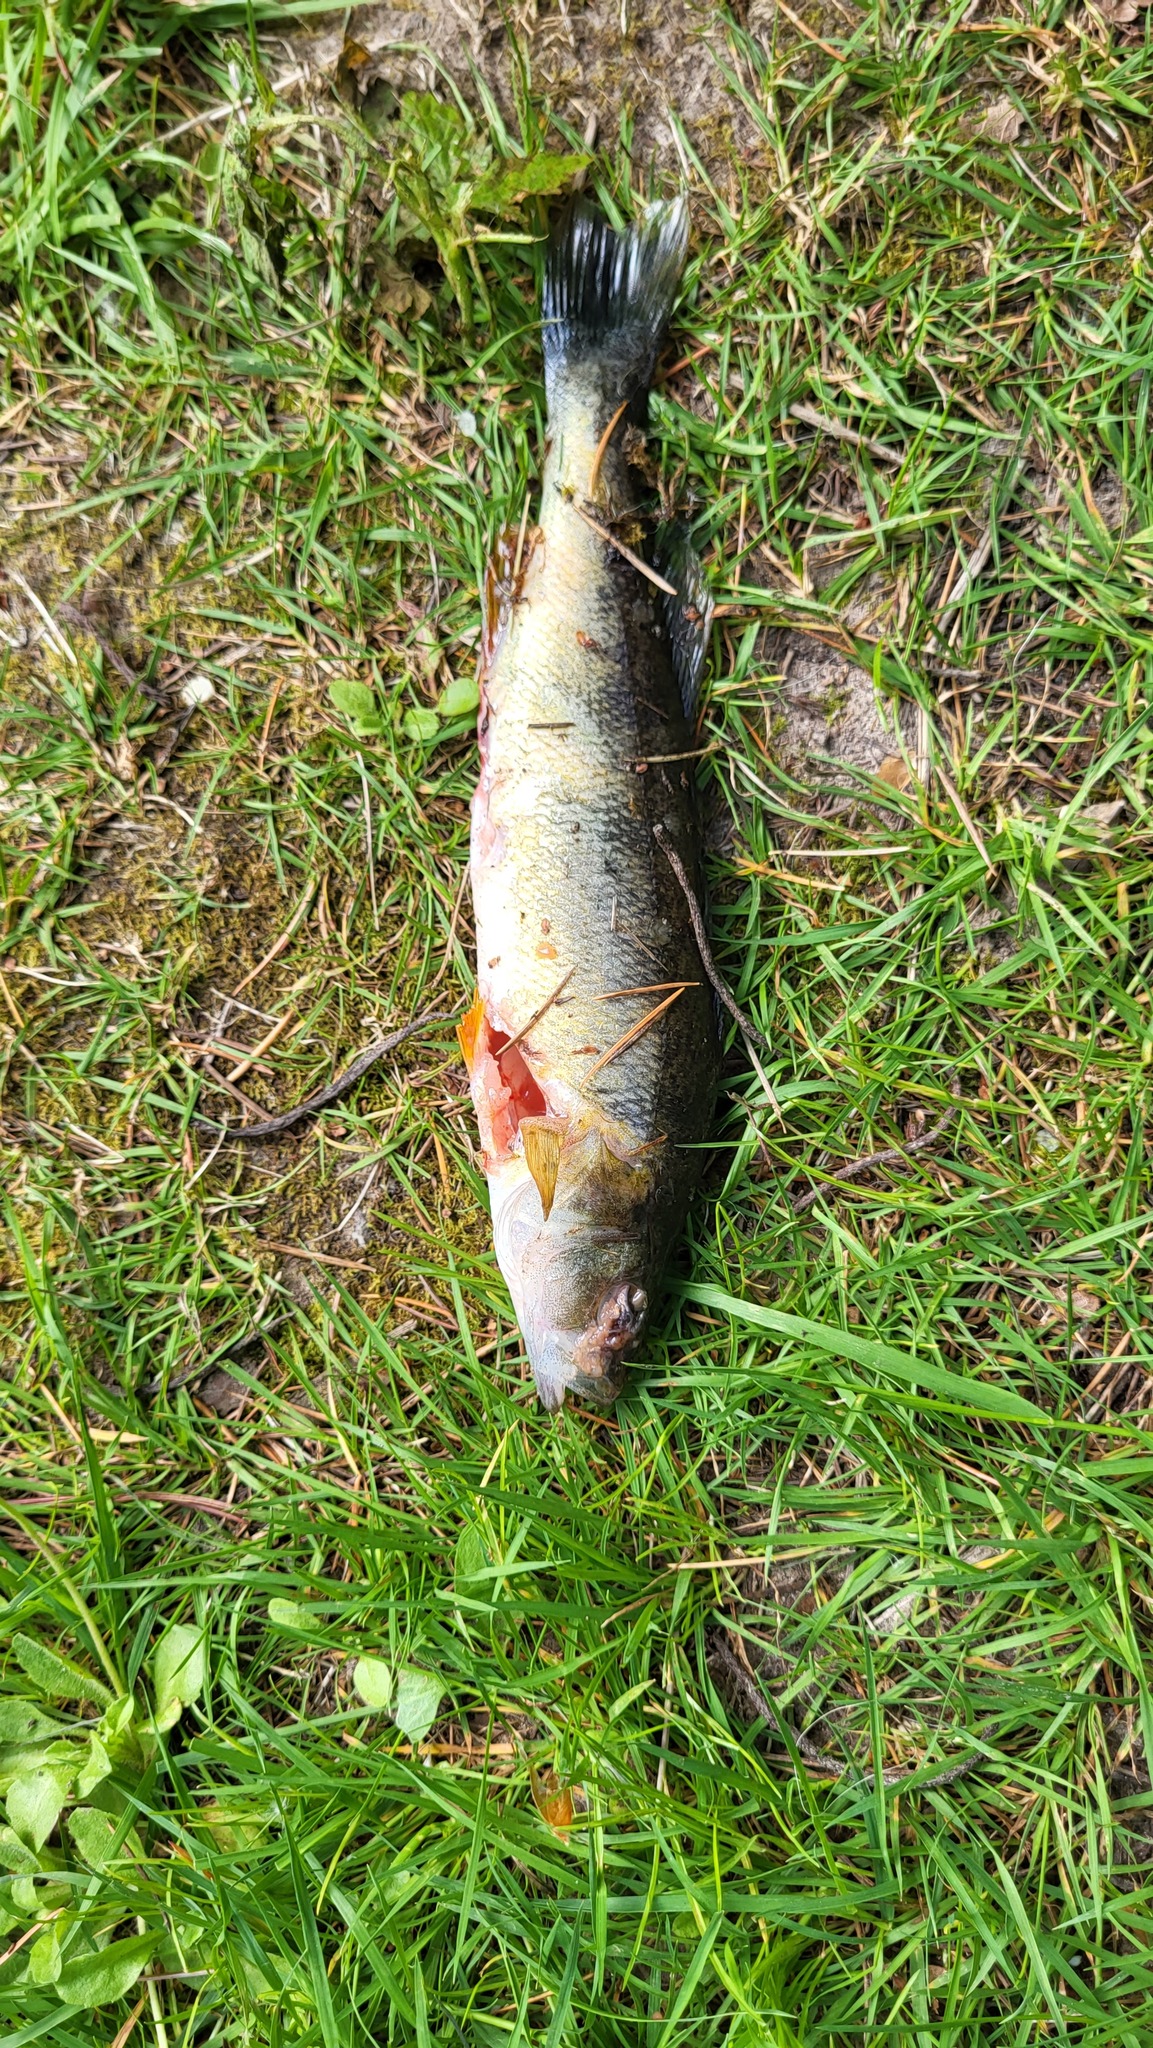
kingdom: Animalia
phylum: Chordata
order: Perciformes
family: Percidae
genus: Perca
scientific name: Perca flavescens
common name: Yellow perch
